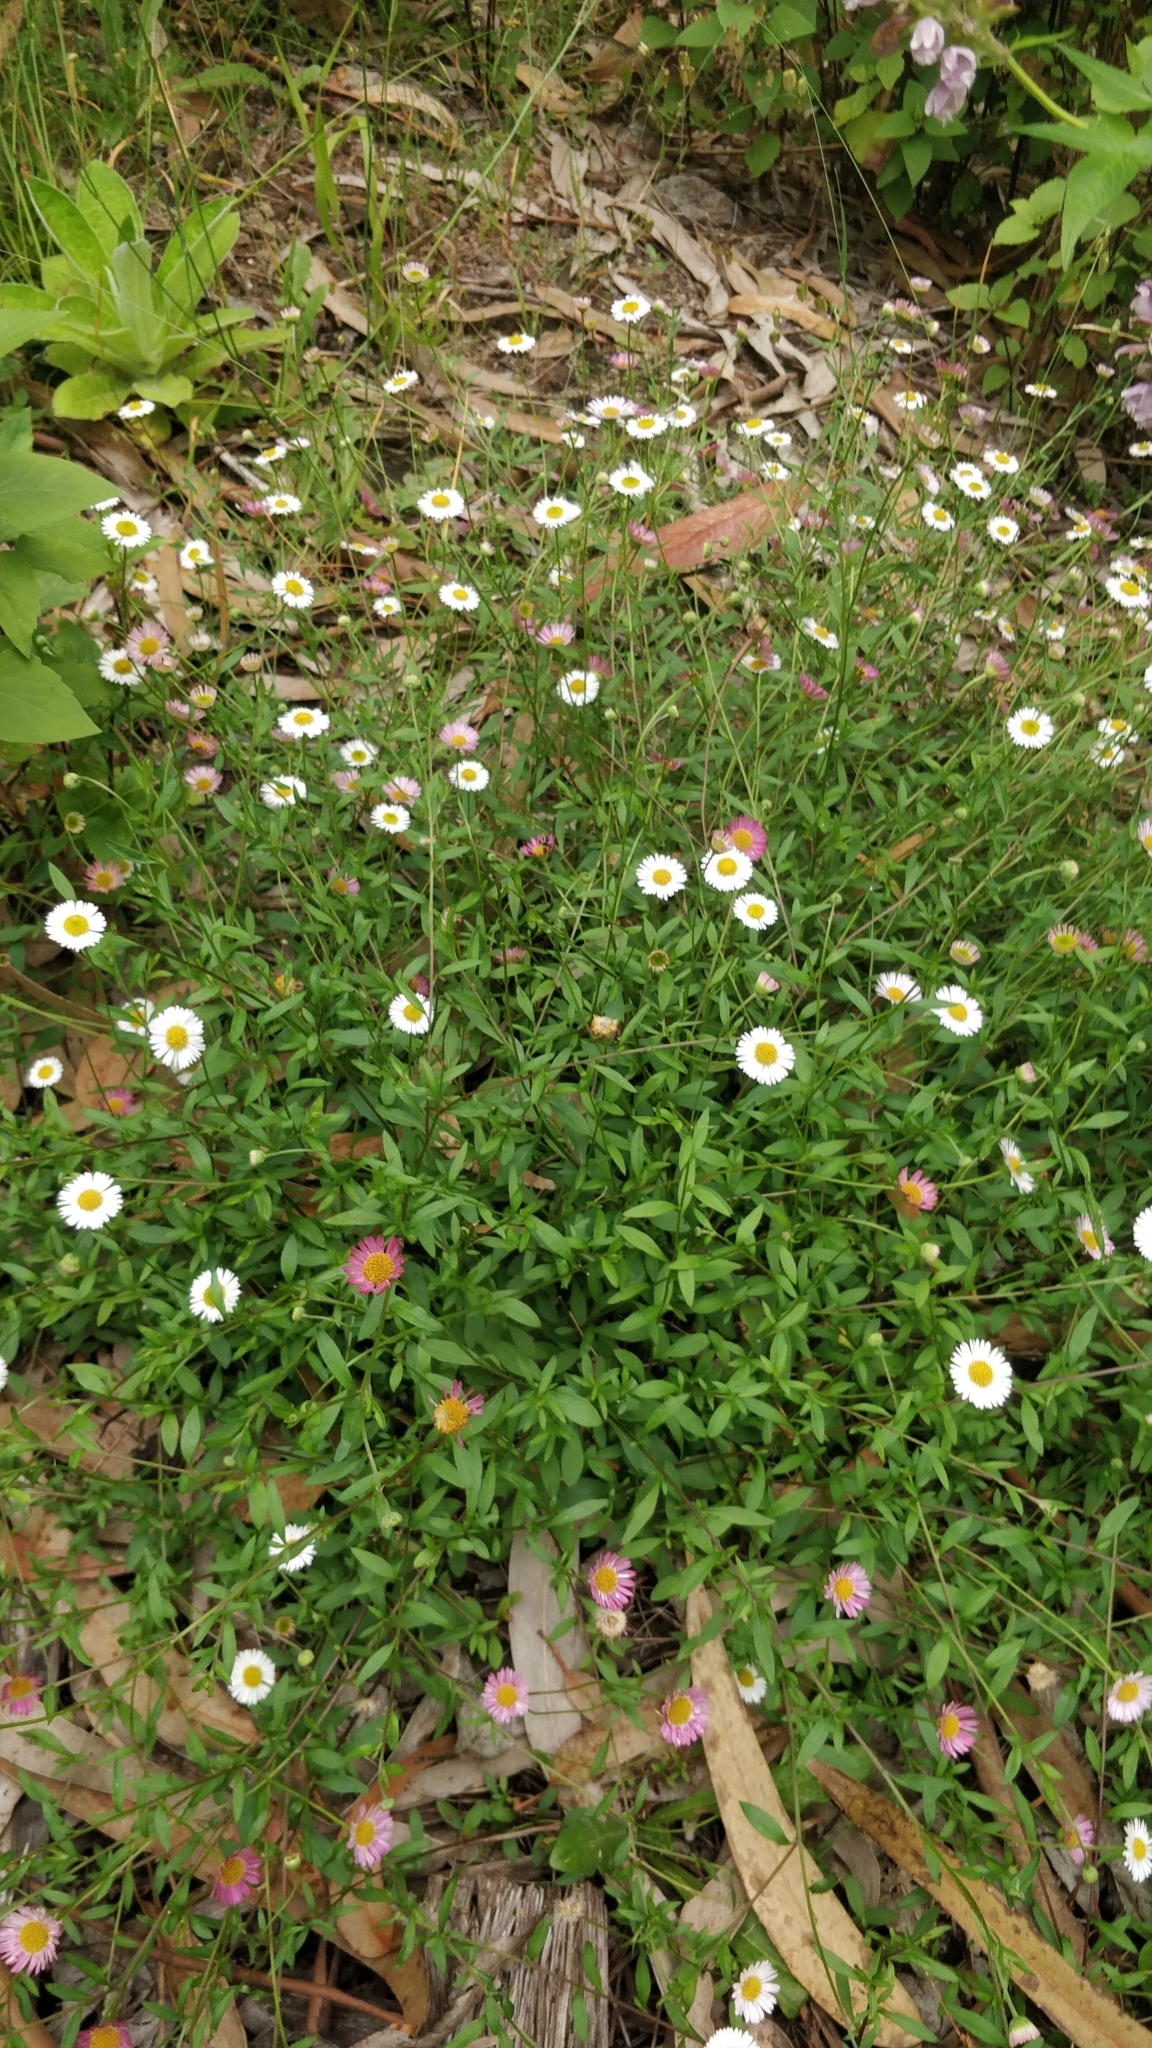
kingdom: Plantae
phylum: Tracheophyta
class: Magnoliopsida
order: Asterales
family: Asteraceae
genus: Erigeron
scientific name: Erigeron karvinskianus
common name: Mexican fleabane
